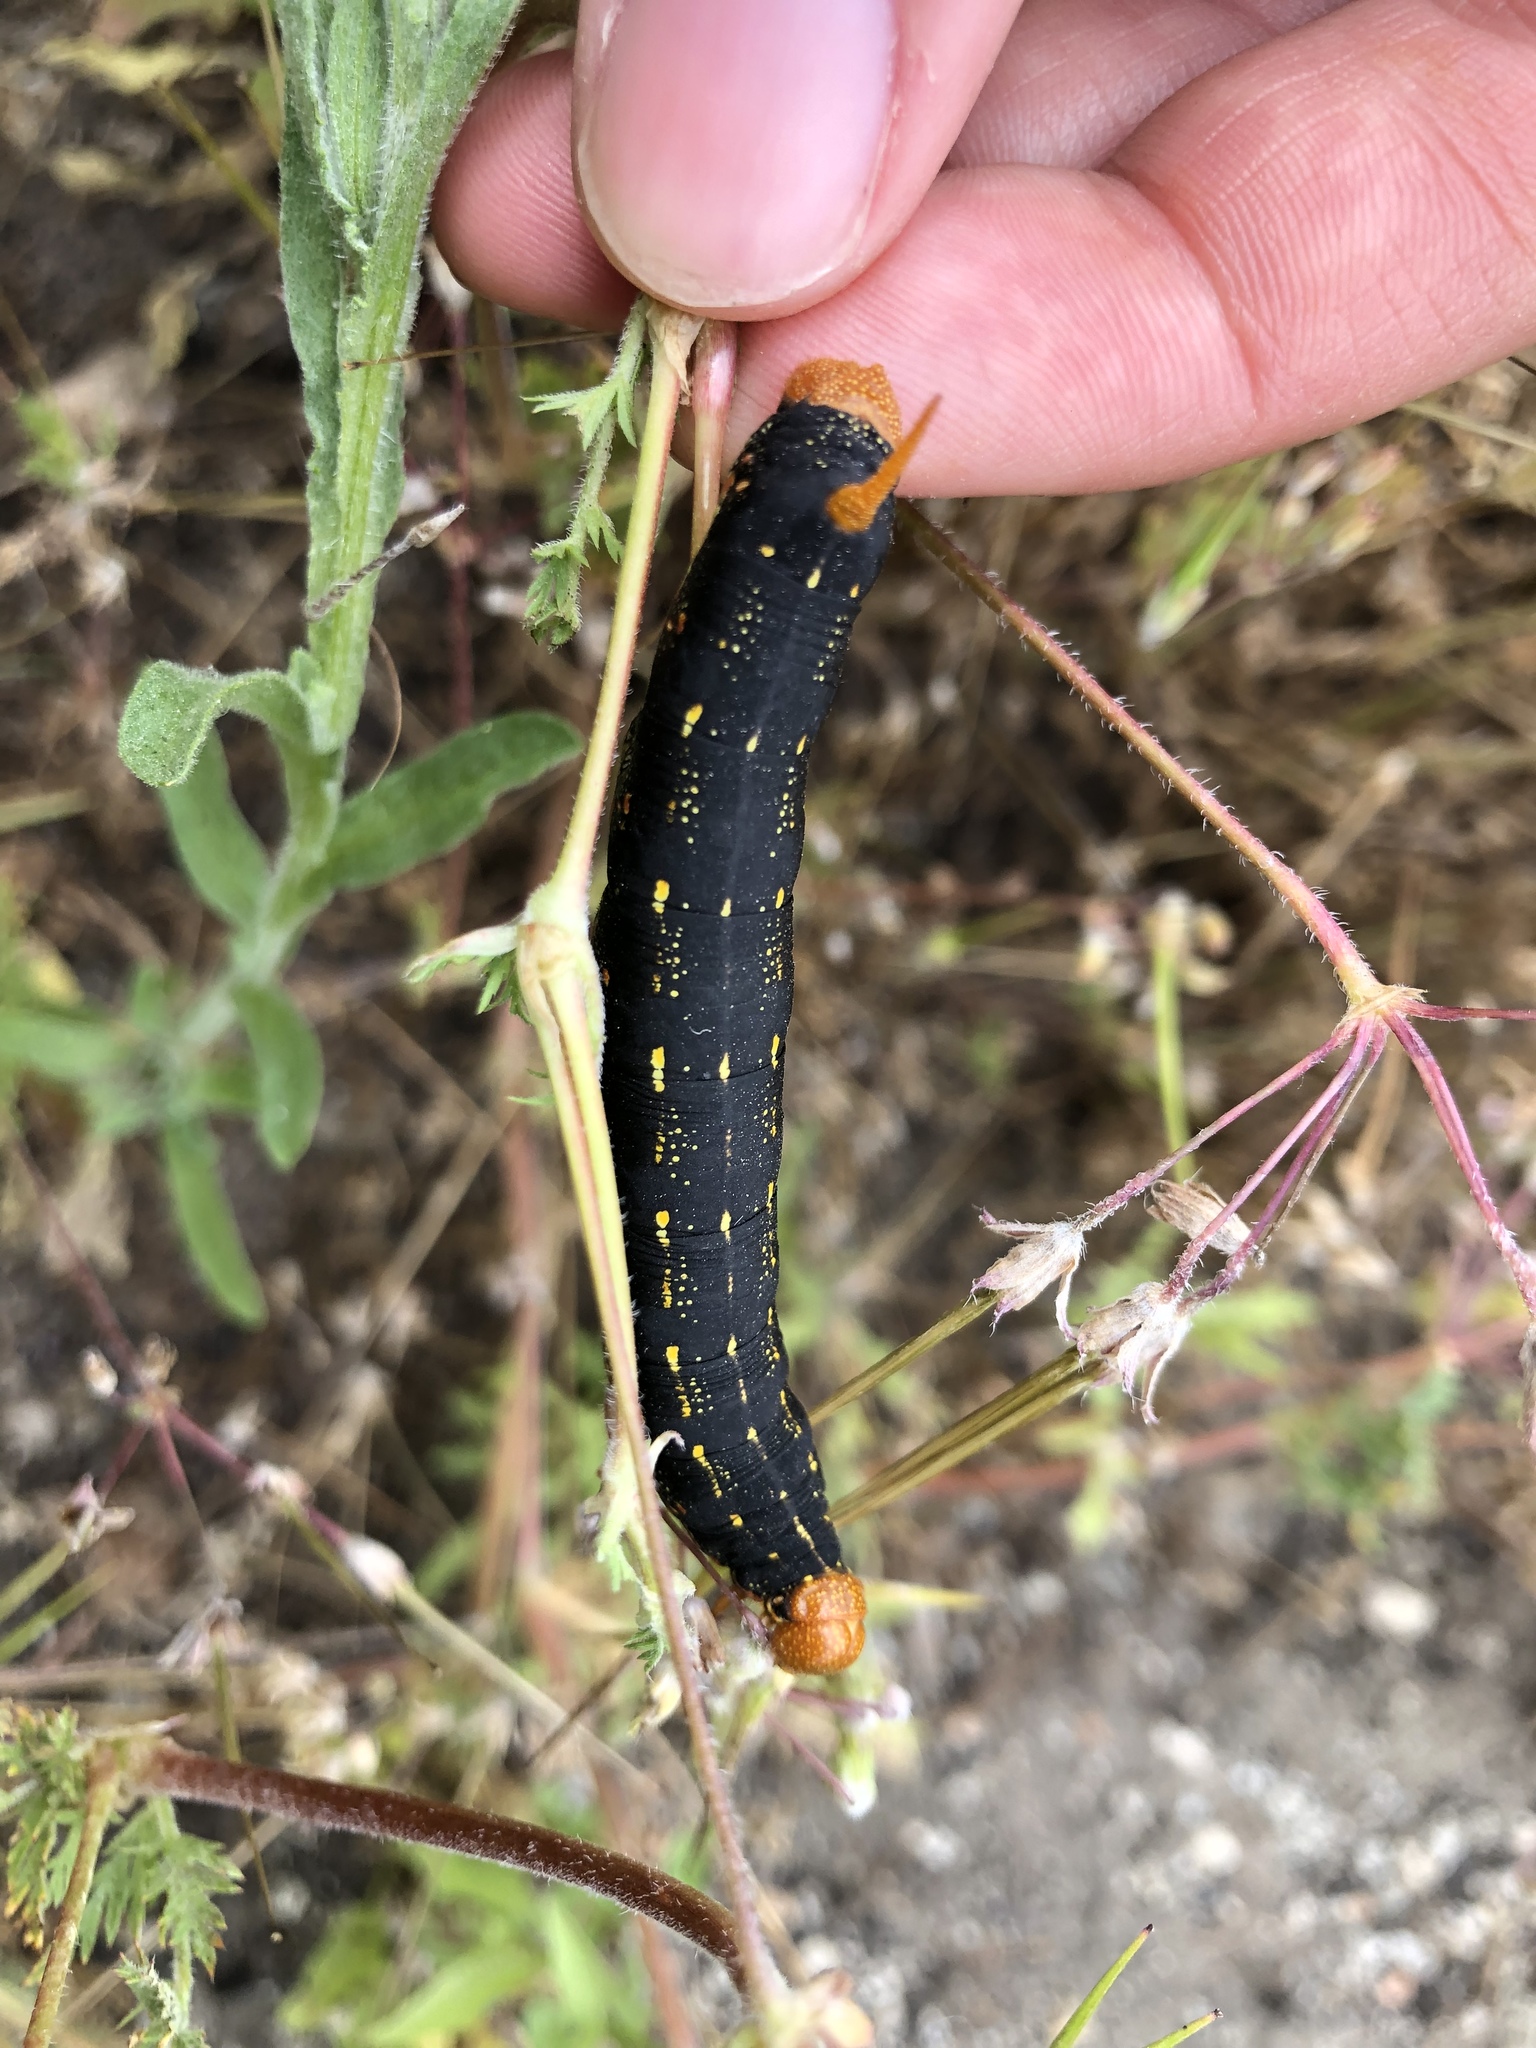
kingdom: Animalia
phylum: Arthropoda
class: Insecta
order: Lepidoptera
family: Sphingidae
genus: Hyles
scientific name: Hyles lineata
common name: White-lined sphinx
